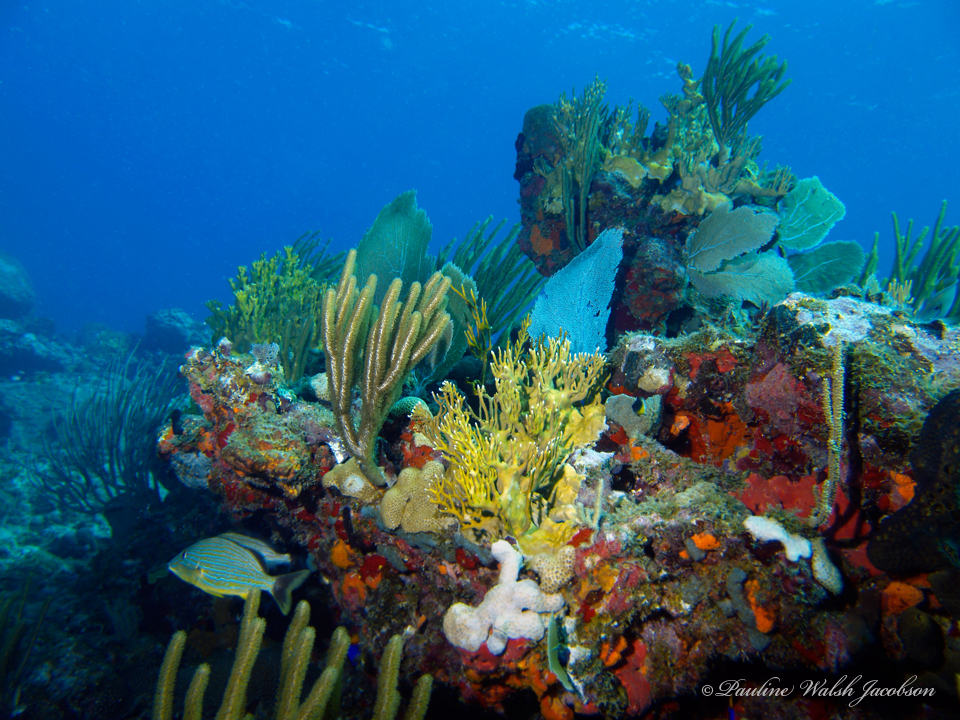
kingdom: Animalia
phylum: Chordata
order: Perciformes
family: Haemulidae
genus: Haemulon
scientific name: Haemulon sciurus
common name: Bluestriped grunt
